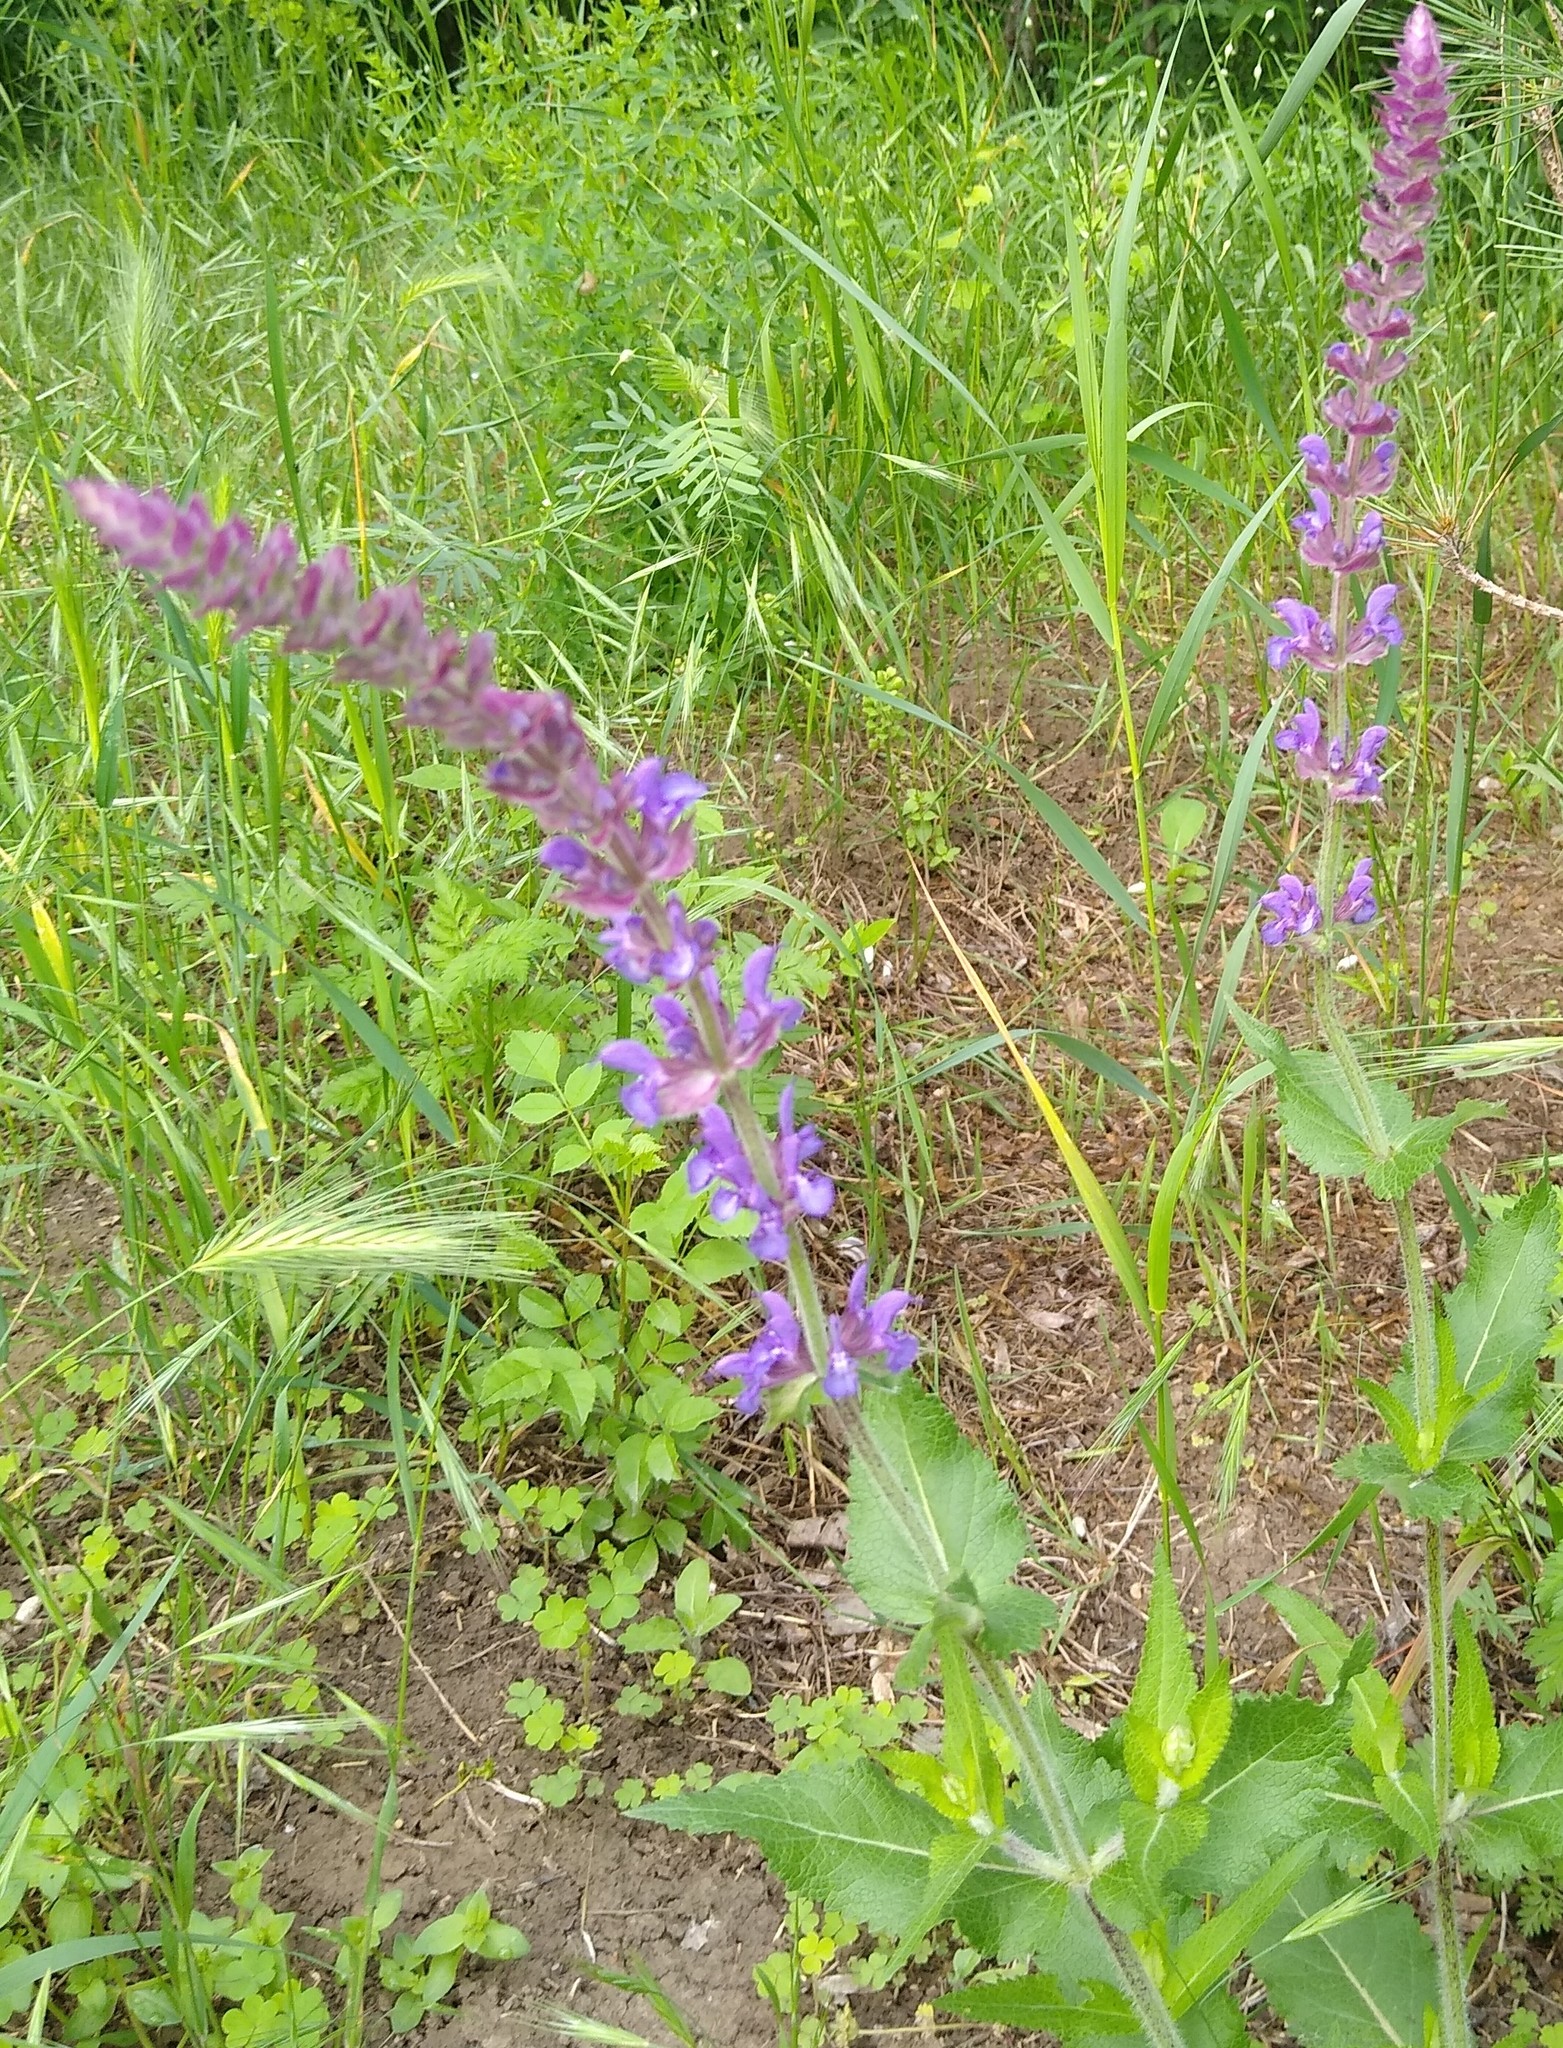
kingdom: Plantae
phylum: Tracheophyta
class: Magnoliopsida
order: Lamiales
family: Lamiaceae
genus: Salvia
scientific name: Salvia nemorosa
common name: Balkan clary
